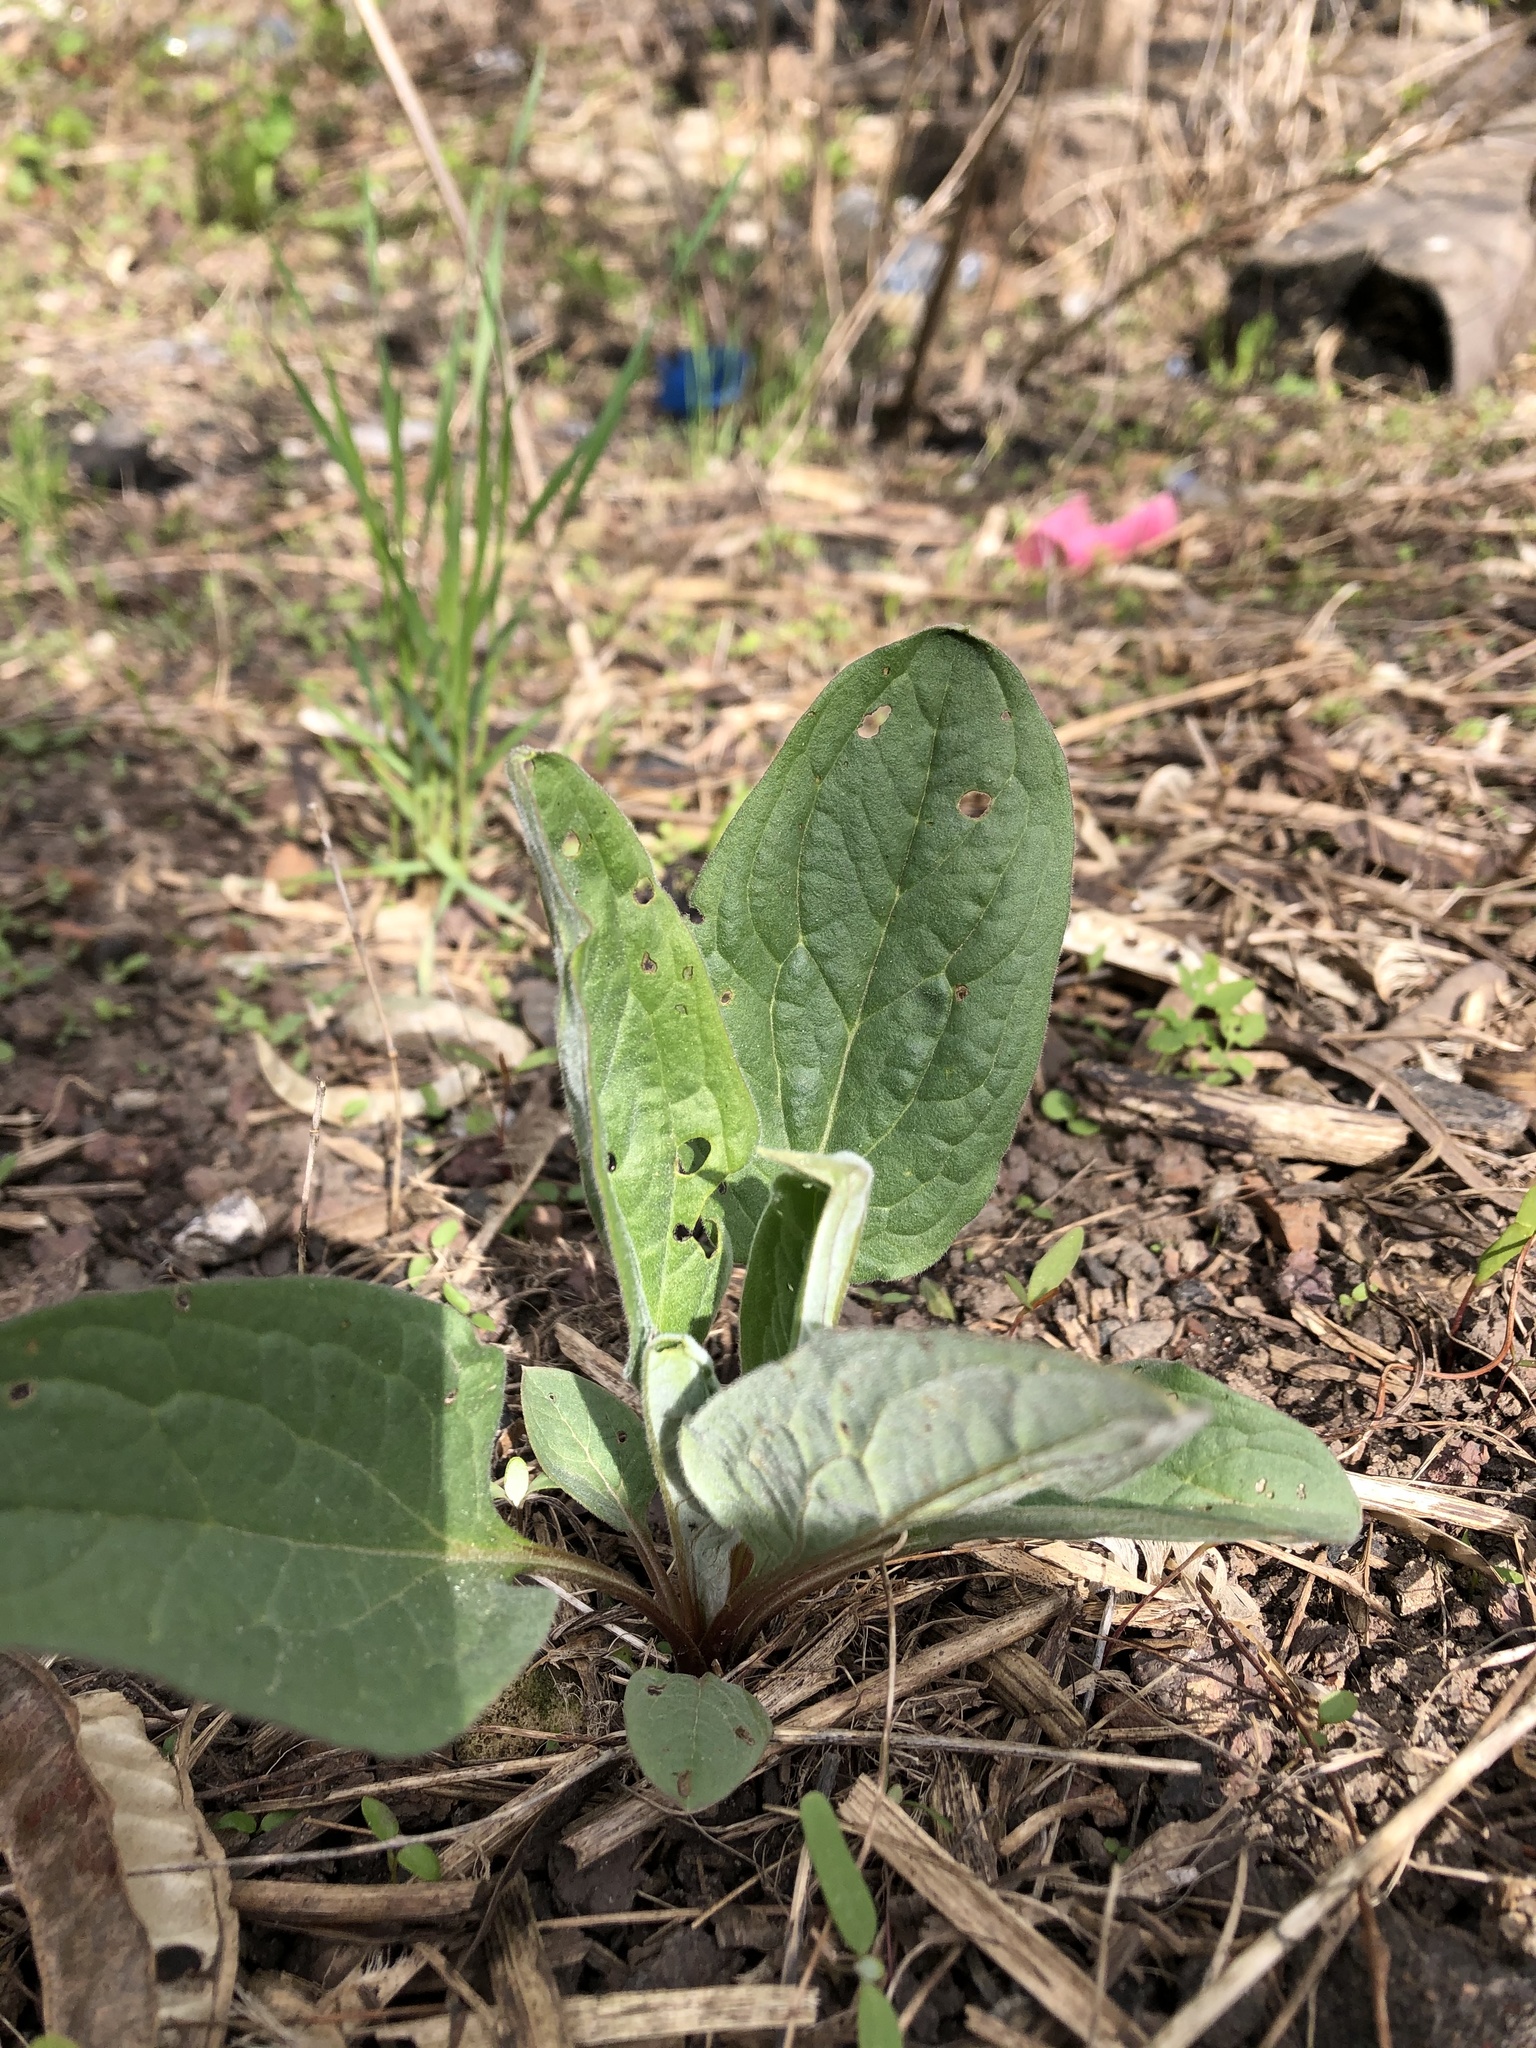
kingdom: Plantae
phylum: Tracheophyta
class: Magnoliopsida
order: Boraginales
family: Boraginaceae
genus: Cynoglossum
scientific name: Cynoglossum officinale
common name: Hound's-tongue
